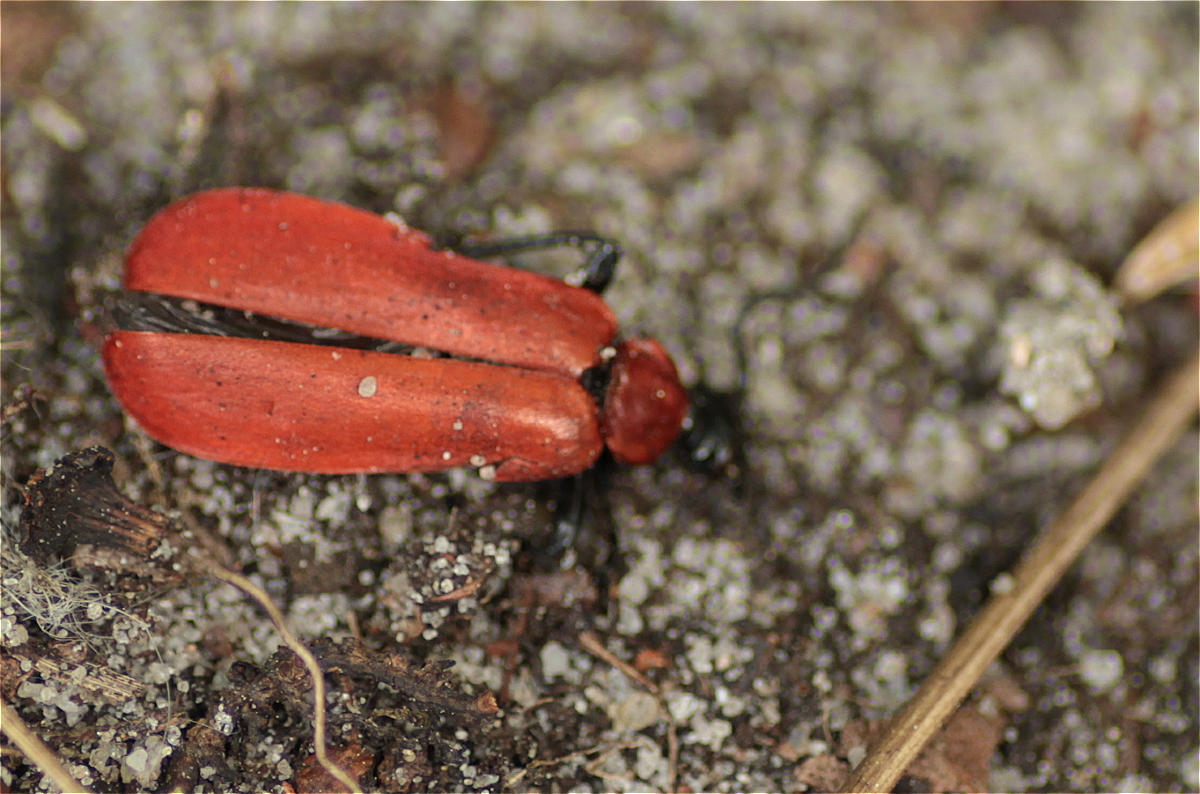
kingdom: Animalia
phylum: Arthropoda
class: Insecta
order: Coleoptera
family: Pyrochroidae
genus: Pyrochroa
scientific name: Pyrochroa coccinea
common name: Black-headed cardinal beetle
